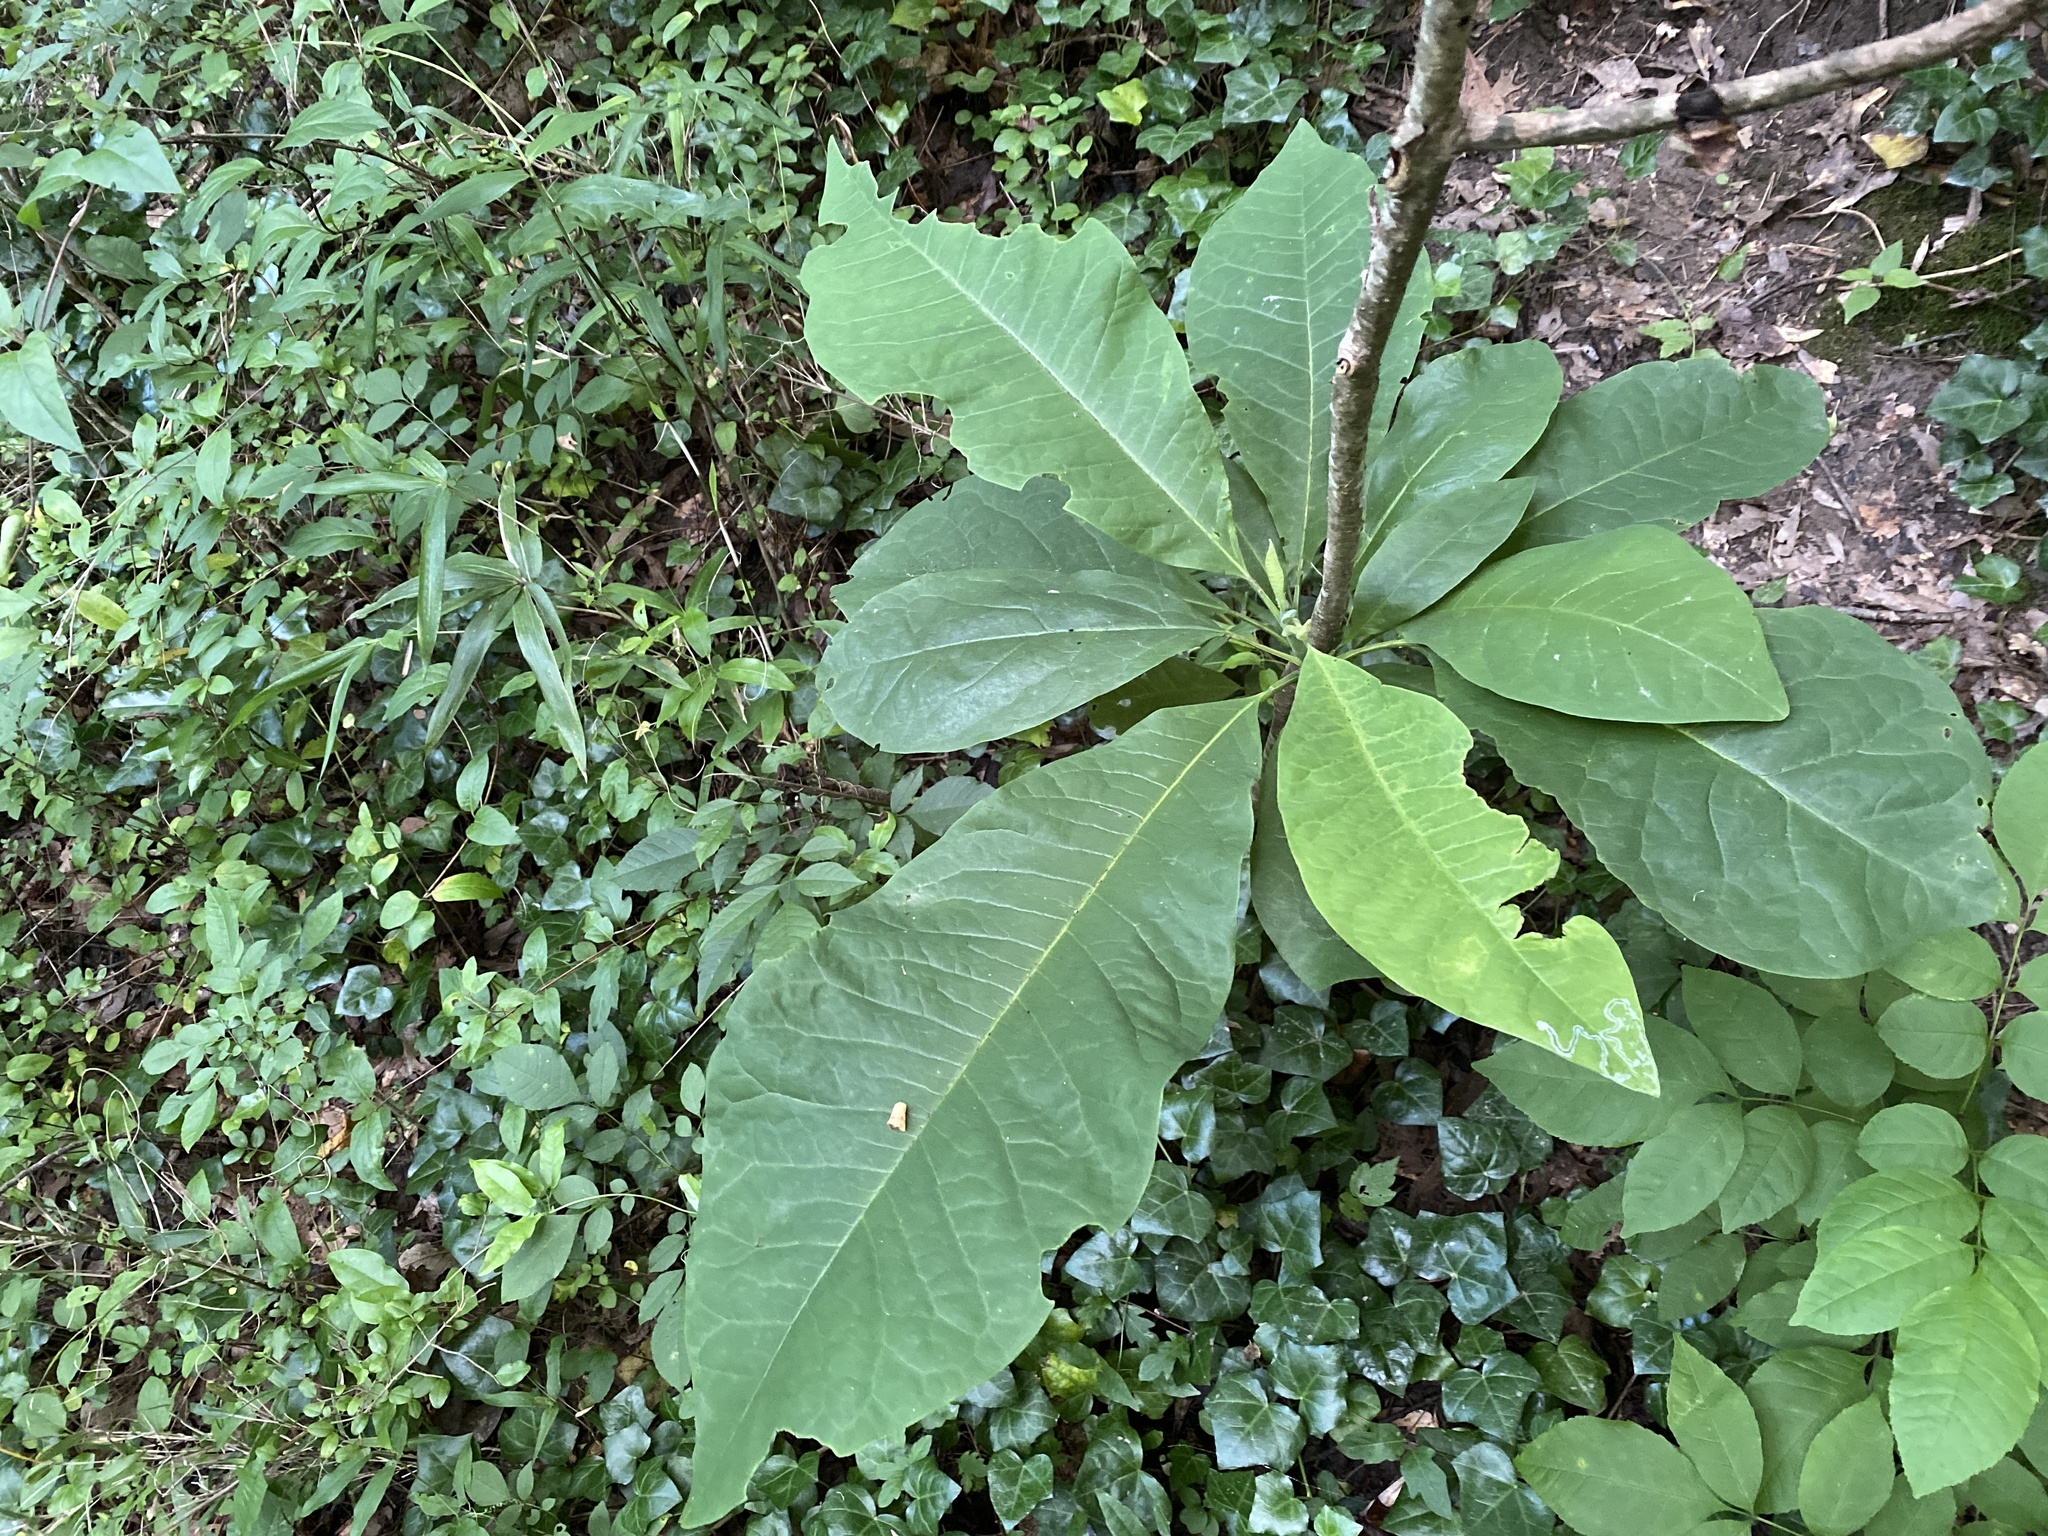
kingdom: Plantae
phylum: Tracheophyta
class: Magnoliopsida
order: Magnoliales
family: Magnoliaceae
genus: Magnolia
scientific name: Magnolia tripetala
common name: Umbrella magnolia
